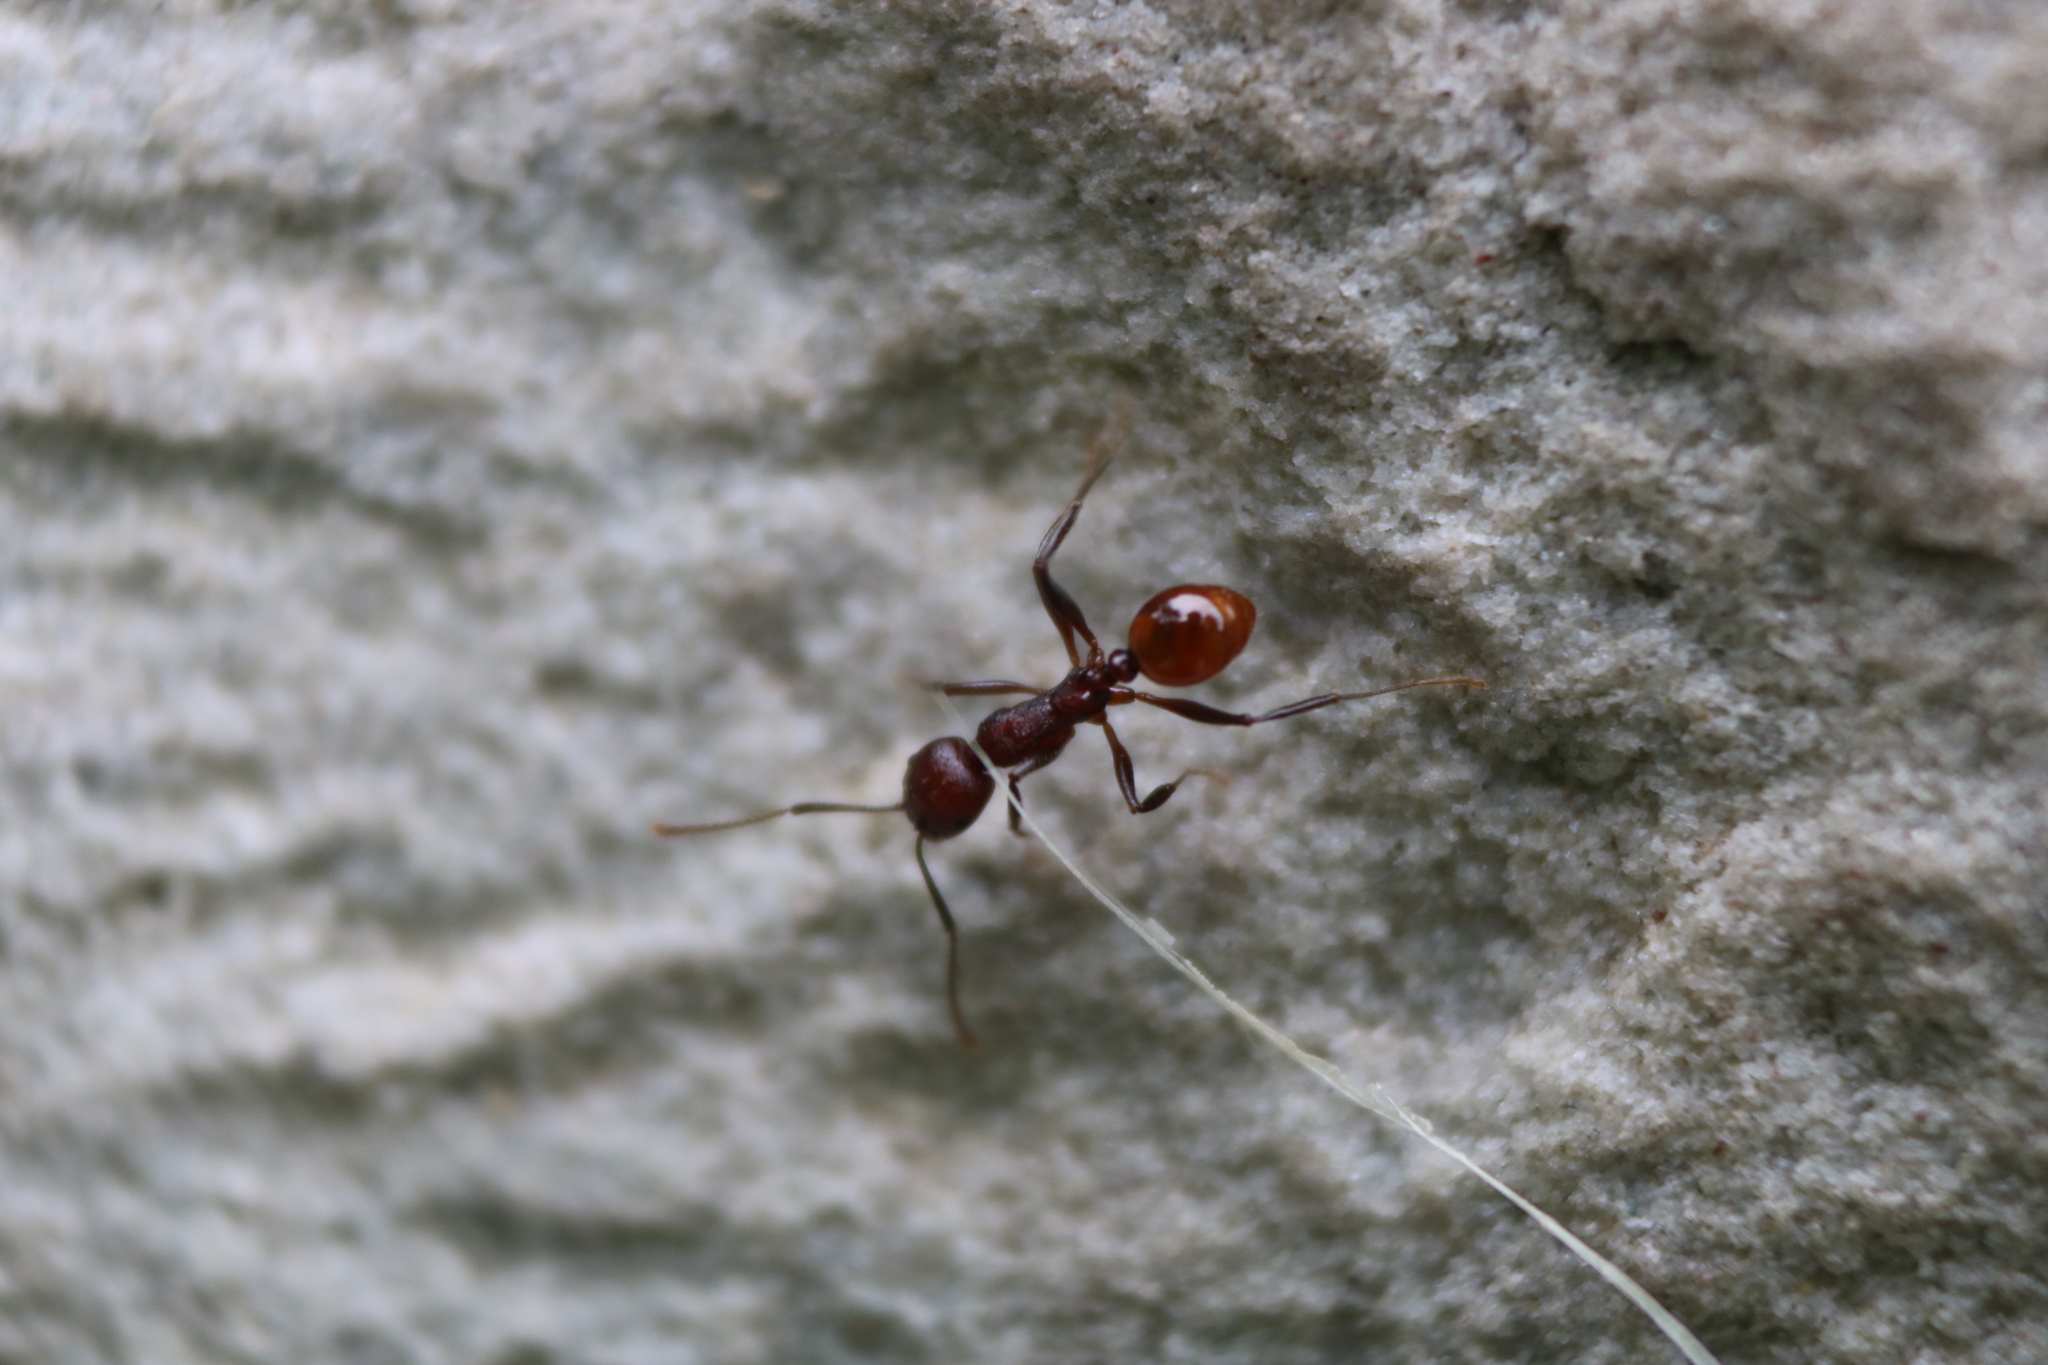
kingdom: Animalia
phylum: Arthropoda
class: Insecta
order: Hymenoptera
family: Formicidae
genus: Aphaenogaster
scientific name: Aphaenogaster tennesseensis
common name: Tennessee thread-waisted ant
